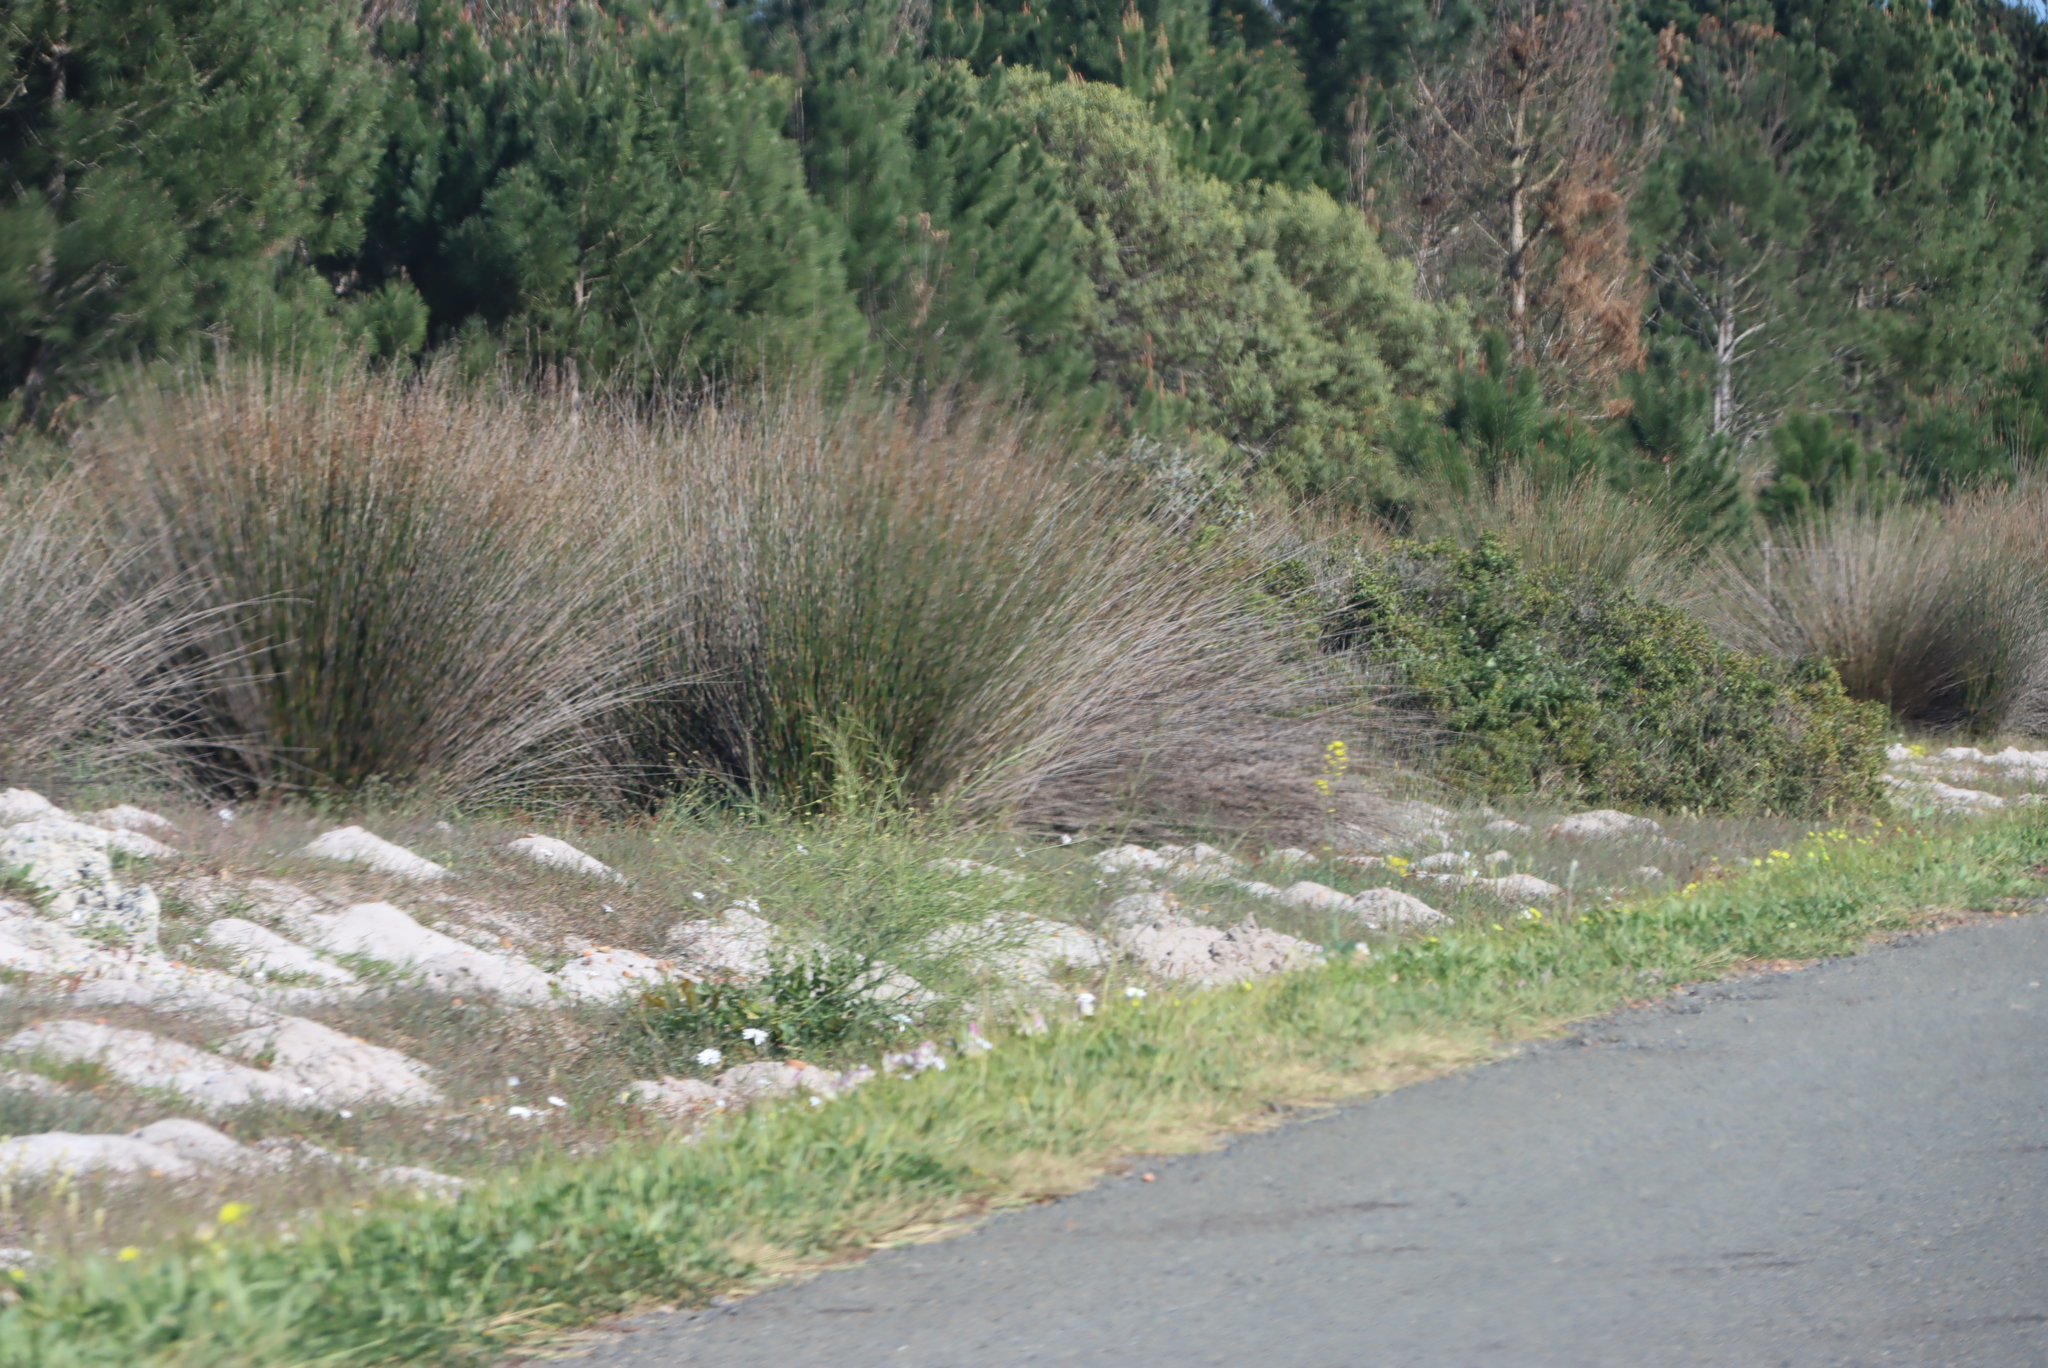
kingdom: Animalia
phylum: Chordata
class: Mammalia
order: Rodentia
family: Bathyergidae
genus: Bathyergus
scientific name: Bathyergus suillus
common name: Cape dune mole rat
